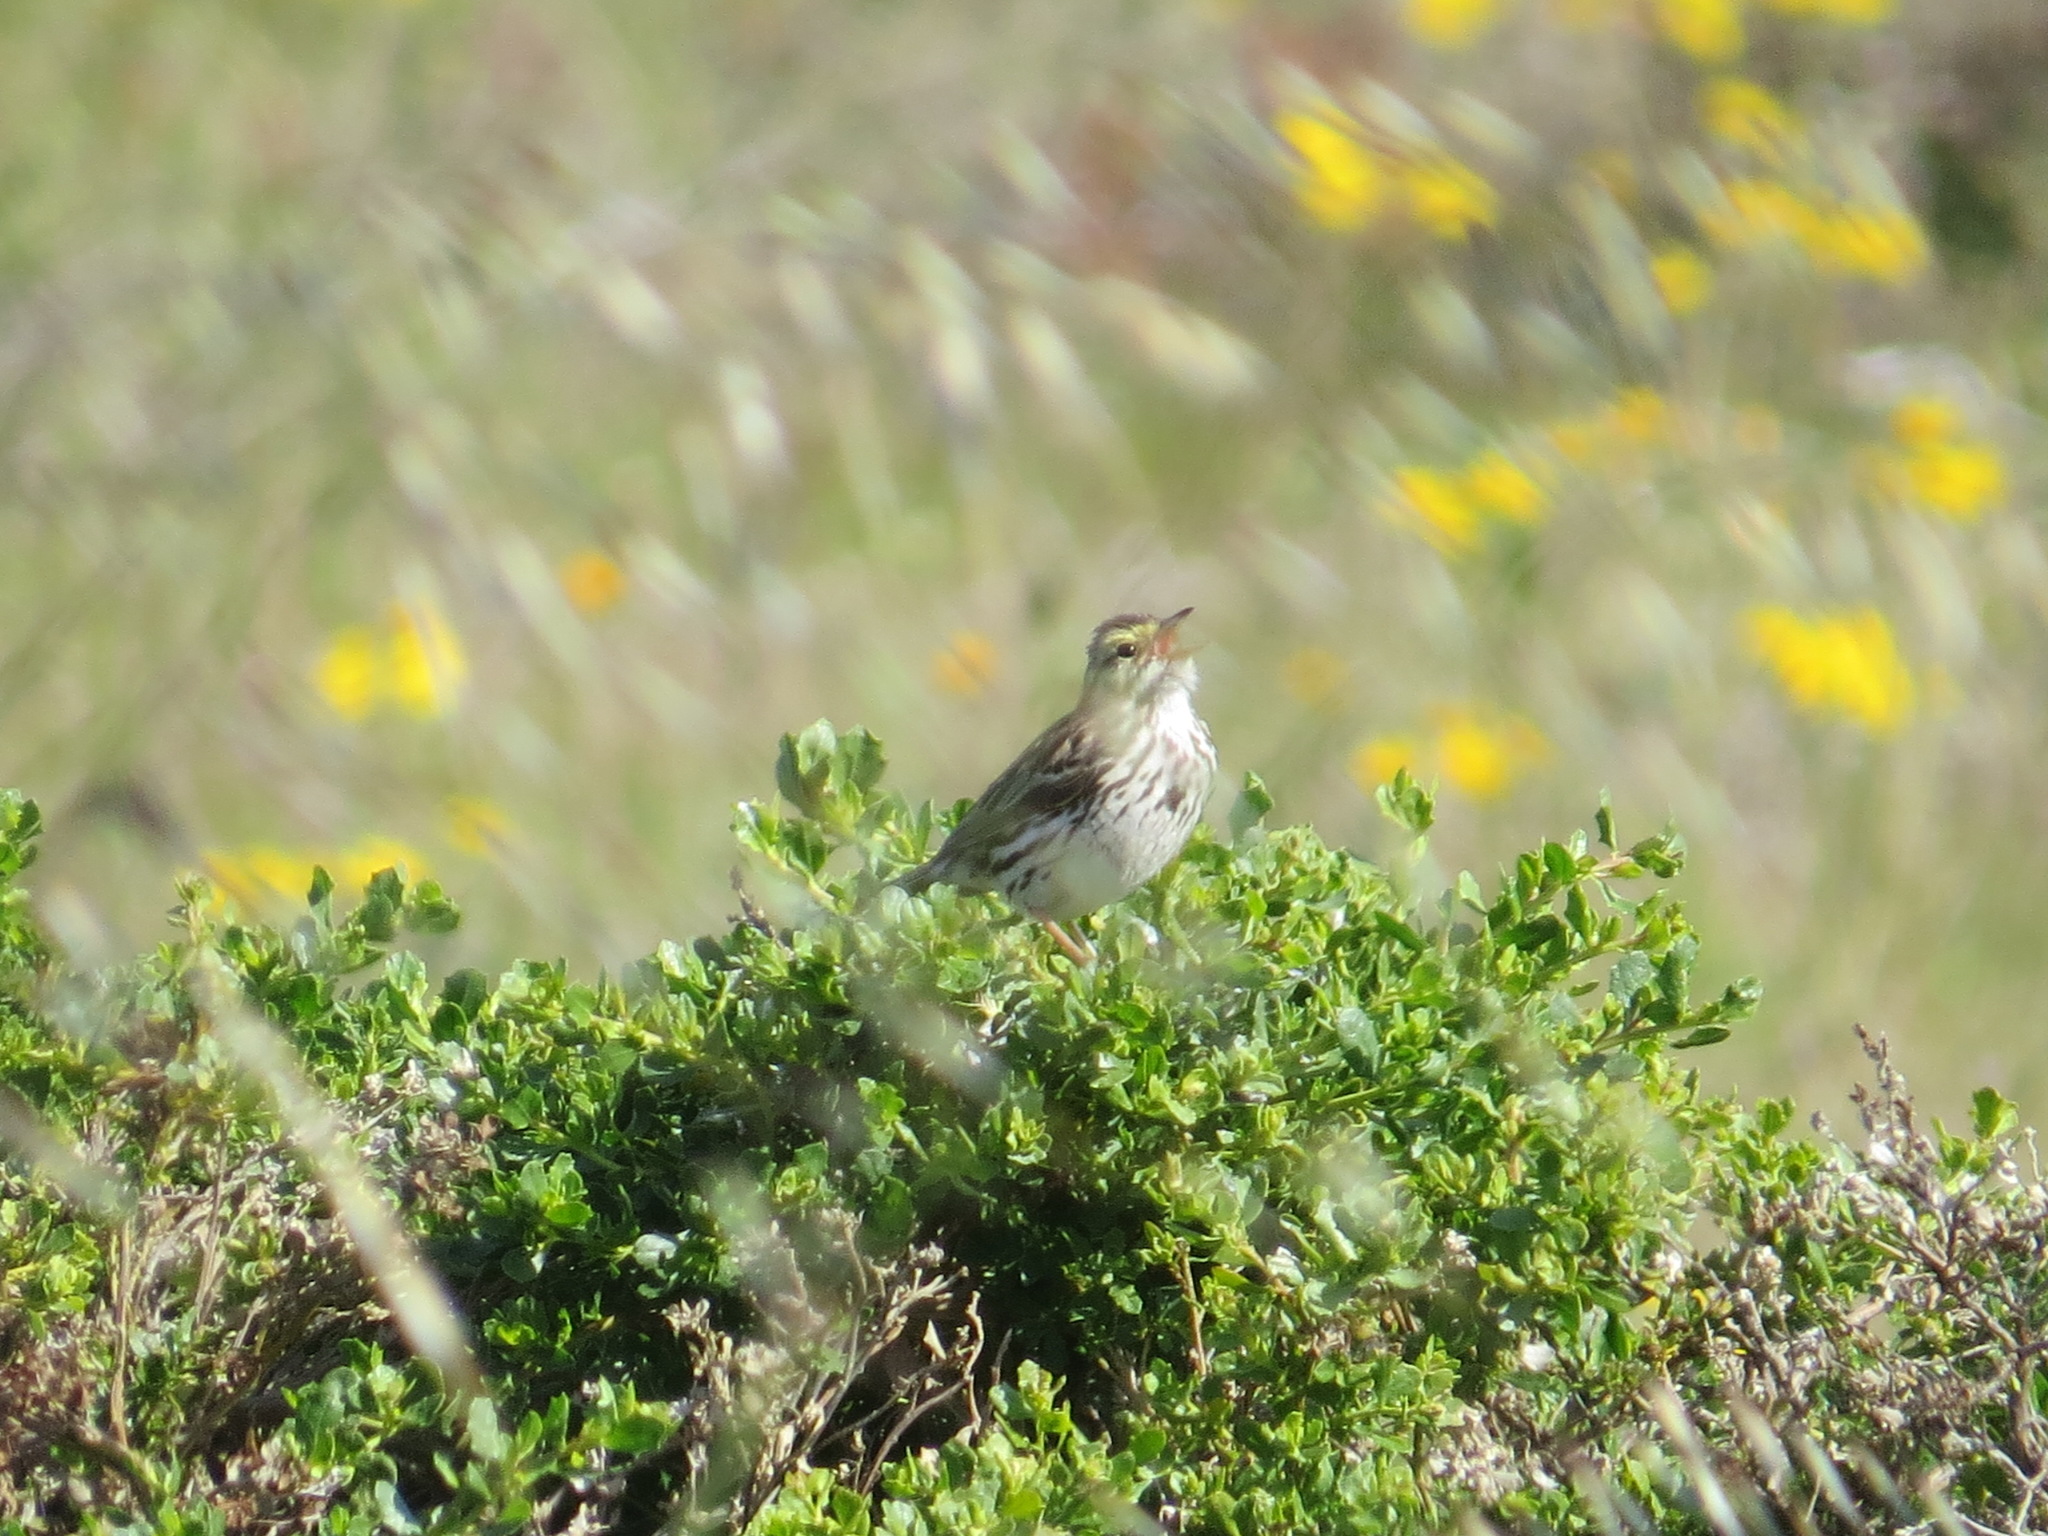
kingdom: Animalia
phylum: Chordata
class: Aves
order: Passeriformes
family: Passerellidae
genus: Passerculus
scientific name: Passerculus sandwichensis
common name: Savannah sparrow
